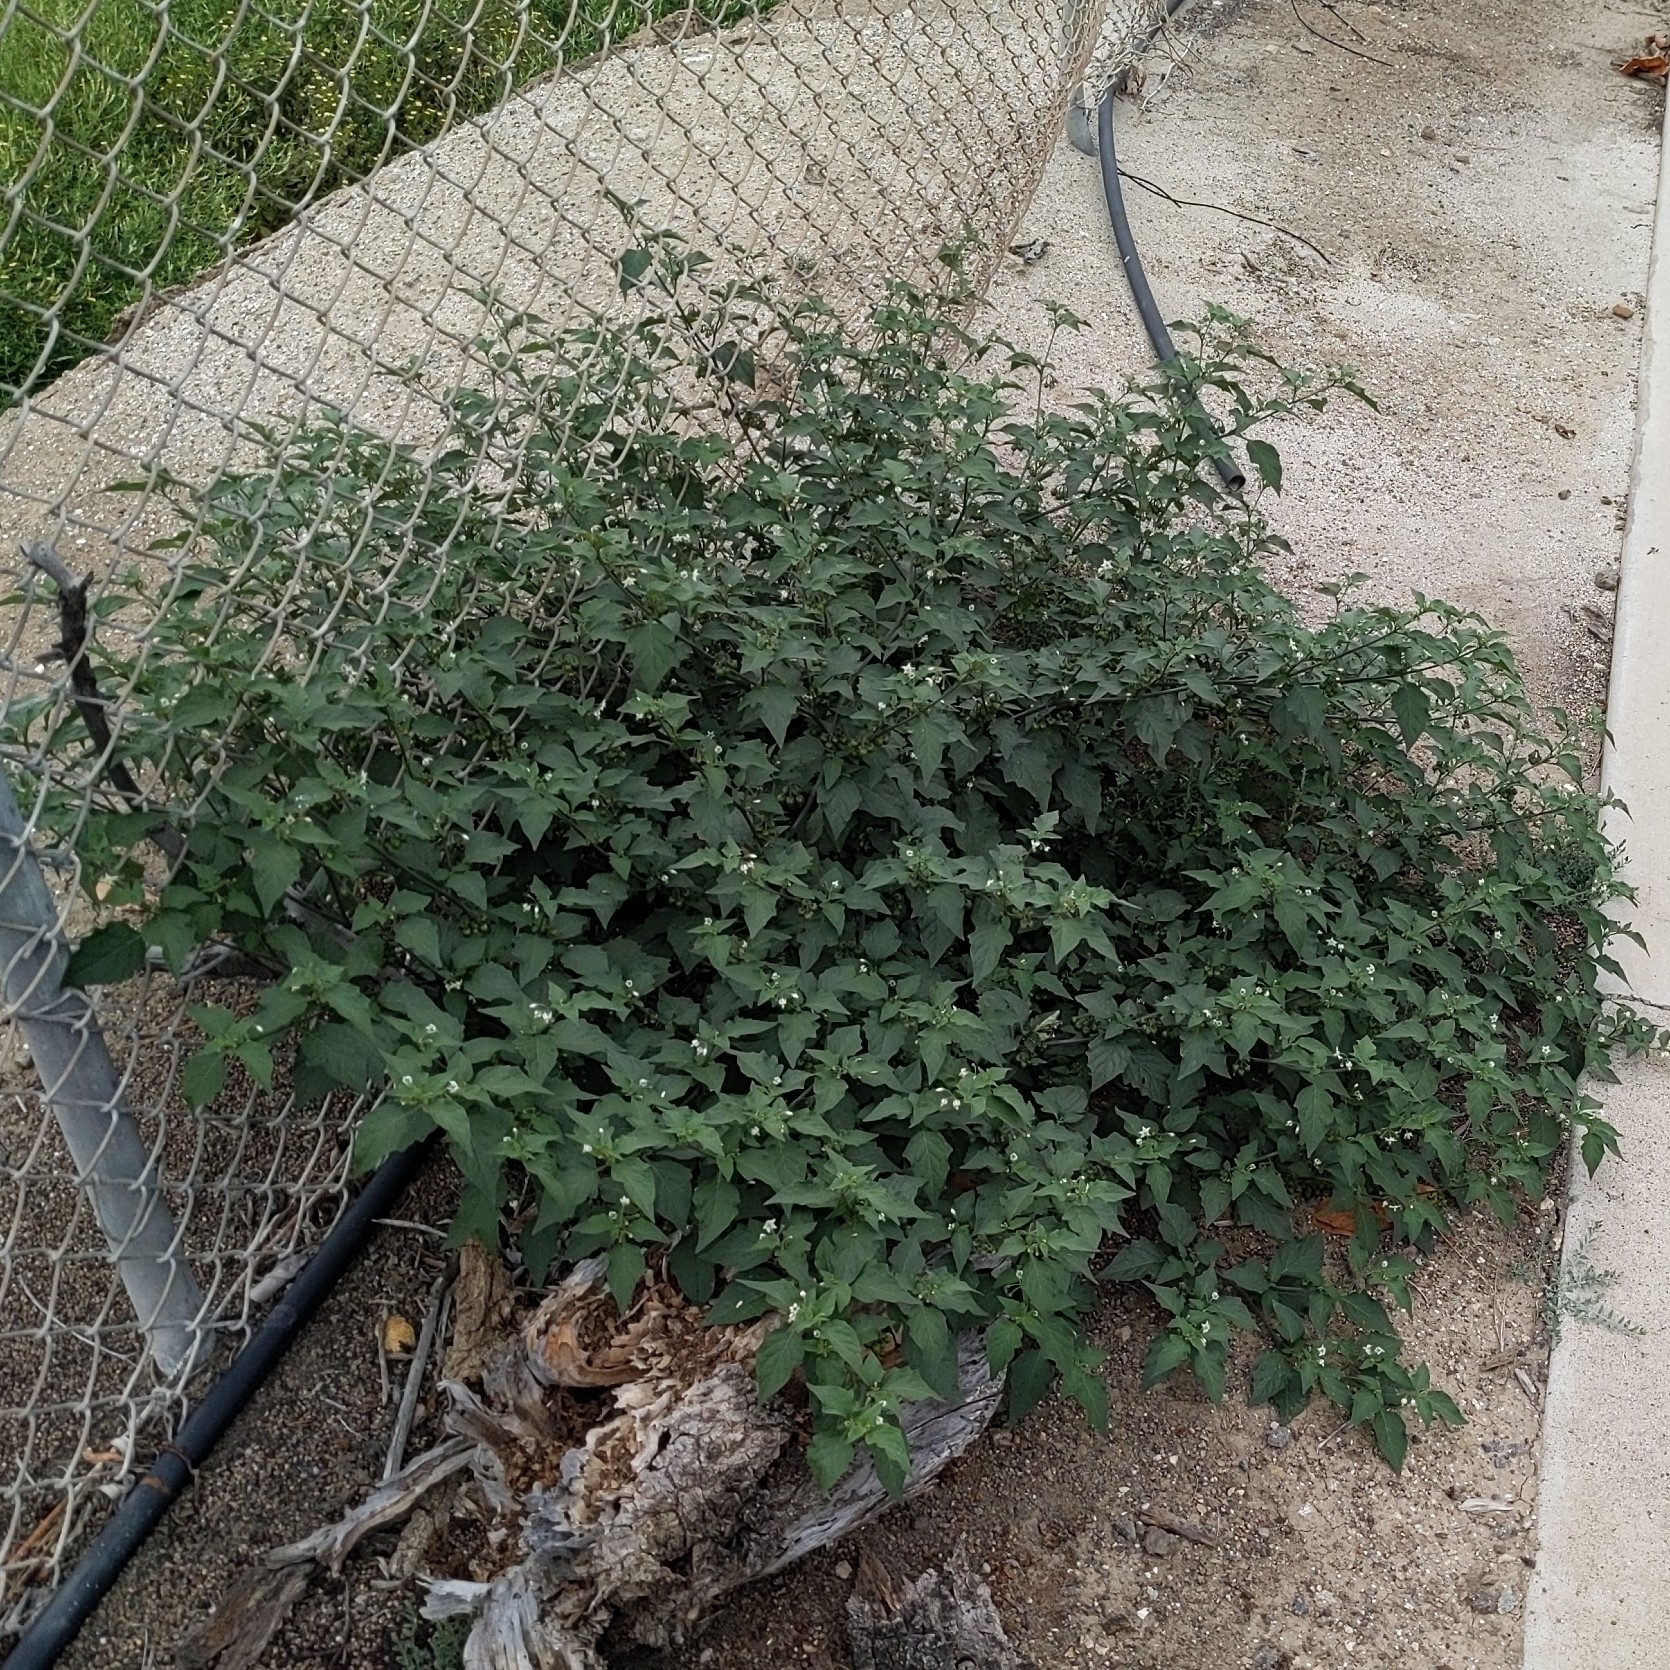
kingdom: Plantae
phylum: Tracheophyta
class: Magnoliopsida
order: Solanales
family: Solanaceae
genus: Solanum
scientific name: Solanum nigrum
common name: Black nightshade
